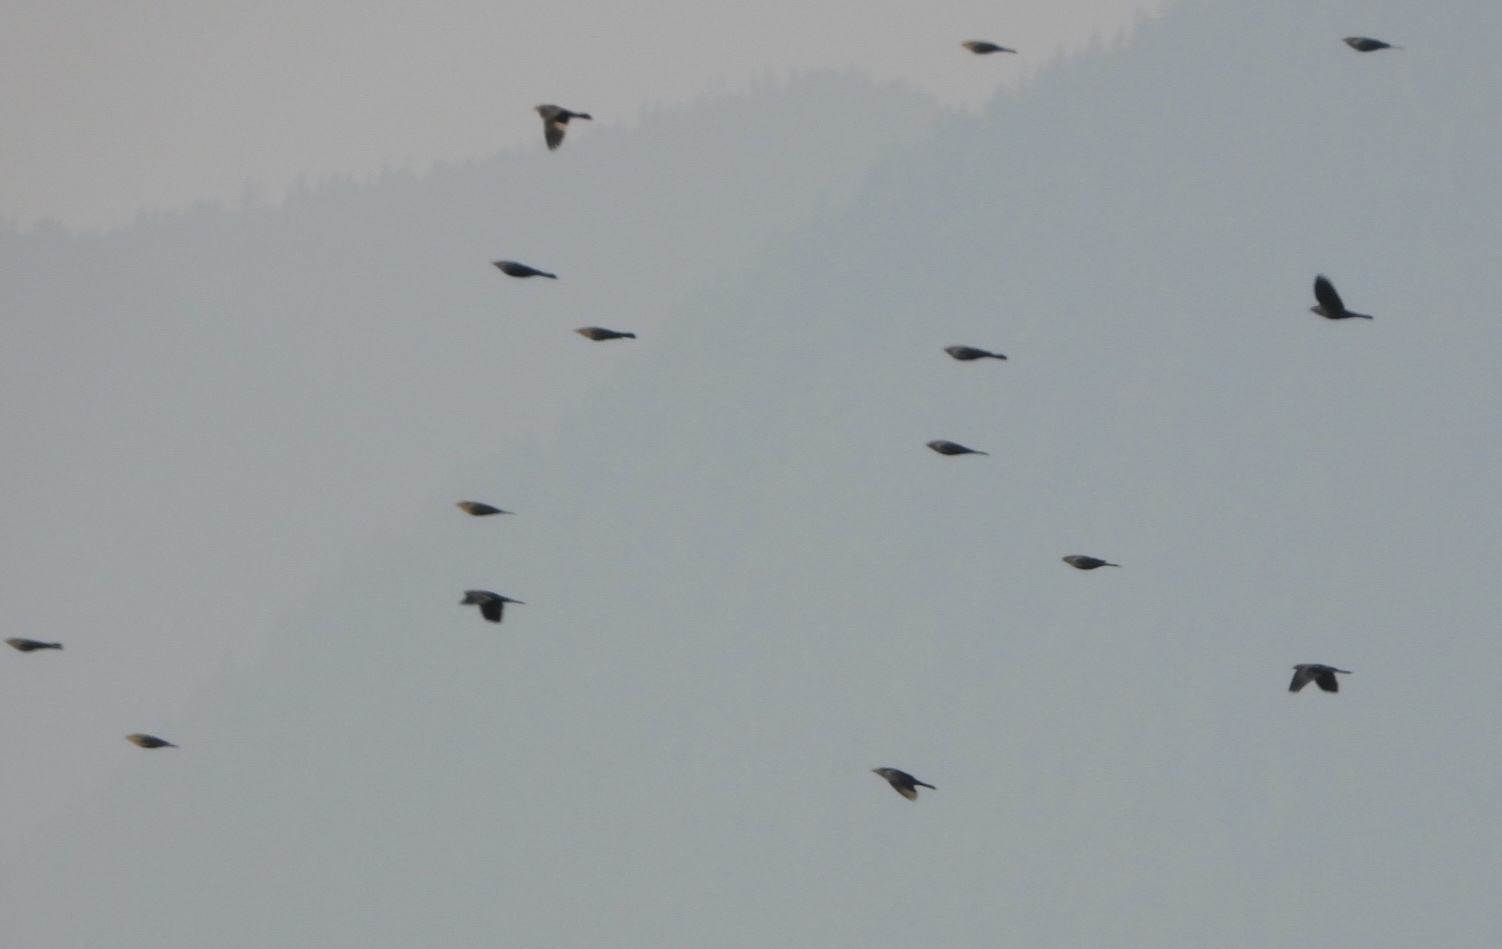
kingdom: Animalia
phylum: Chordata
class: Aves
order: Passeriformes
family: Icteridae
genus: Euphagus
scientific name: Euphagus cyanocephalus
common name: Brewer's blackbird
